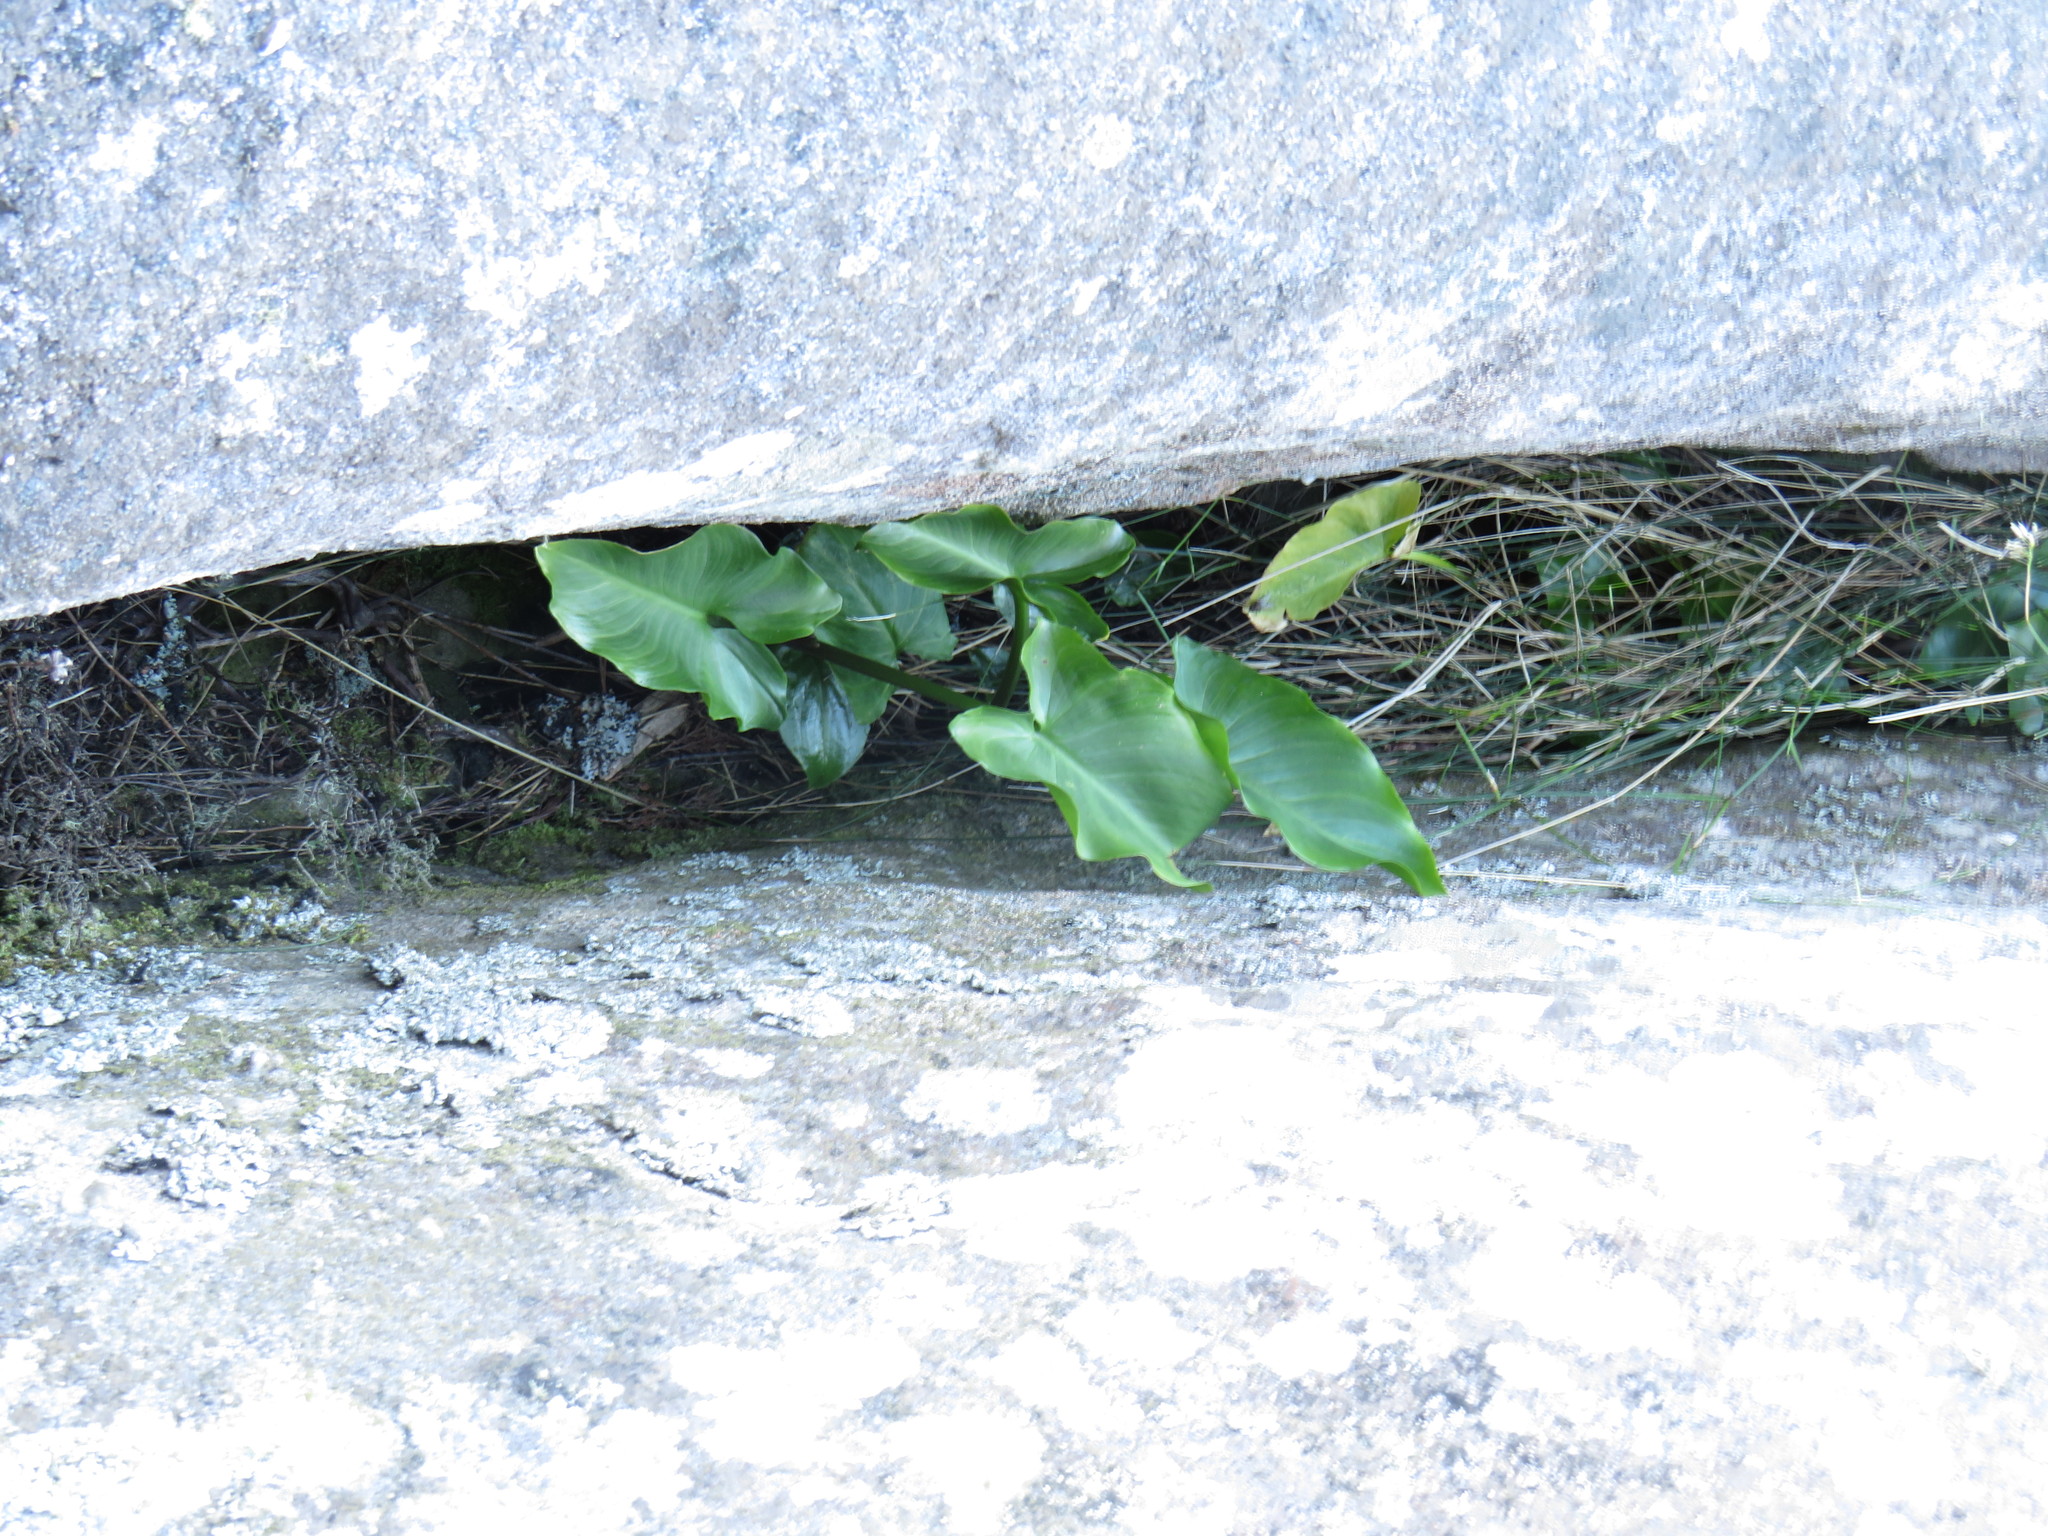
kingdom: Plantae
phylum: Tracheophyta
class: Liliopsida
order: Alismatales
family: Araceae
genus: Zantedeschia
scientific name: Zantedeschia aethiopica
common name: Altar-lily
